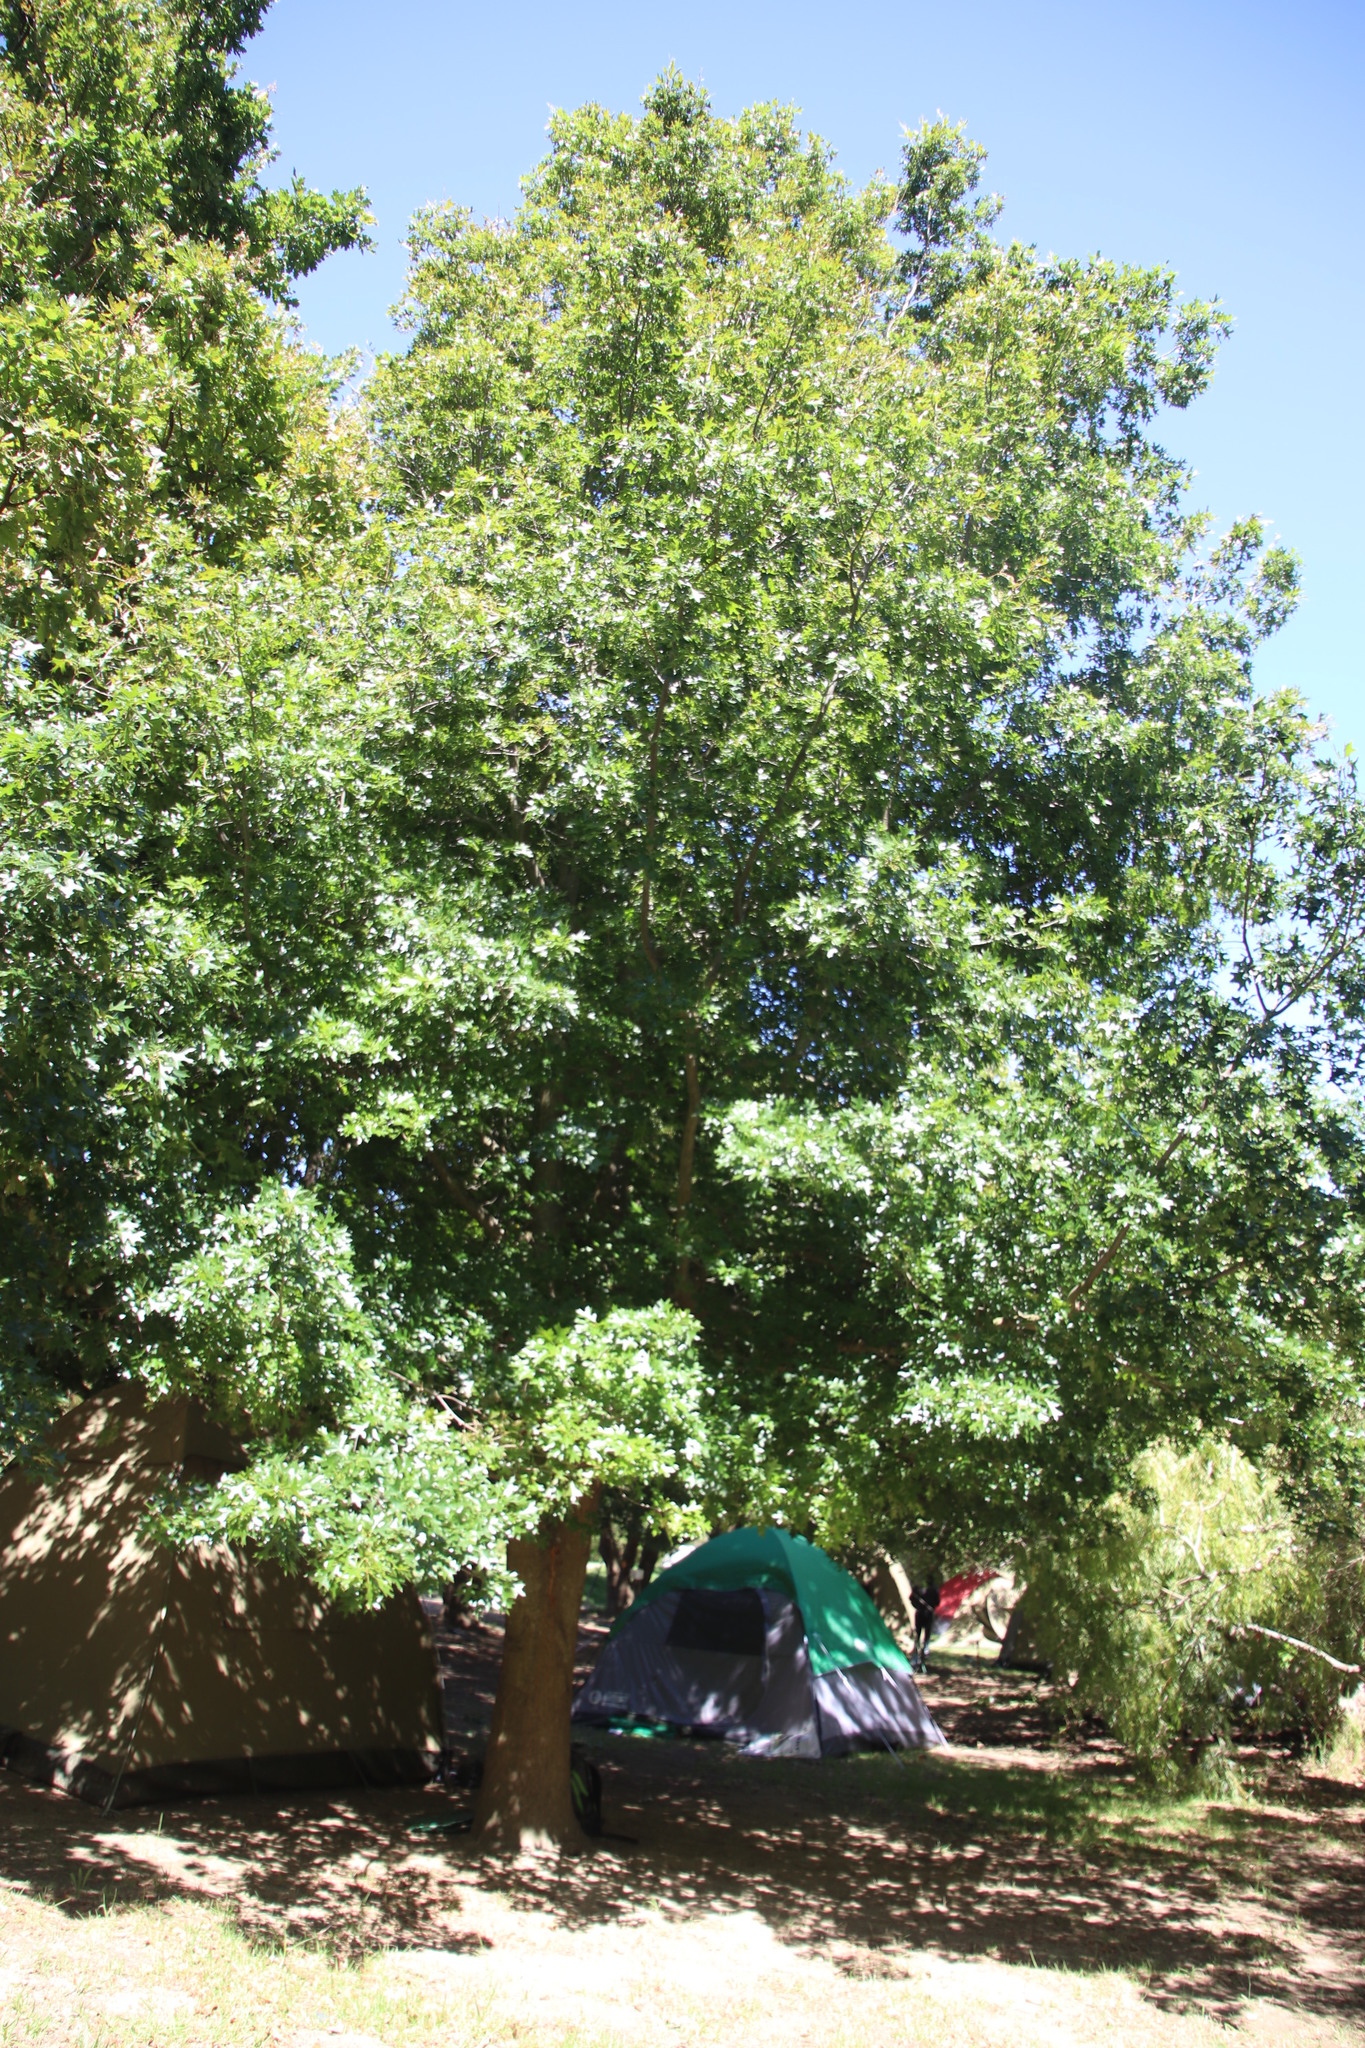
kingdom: Plantae
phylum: Tracheophyta
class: Magnoliopsida
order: Fagales
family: Fagaceae
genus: Quercus
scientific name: Quercus palustris
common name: Pin oak
